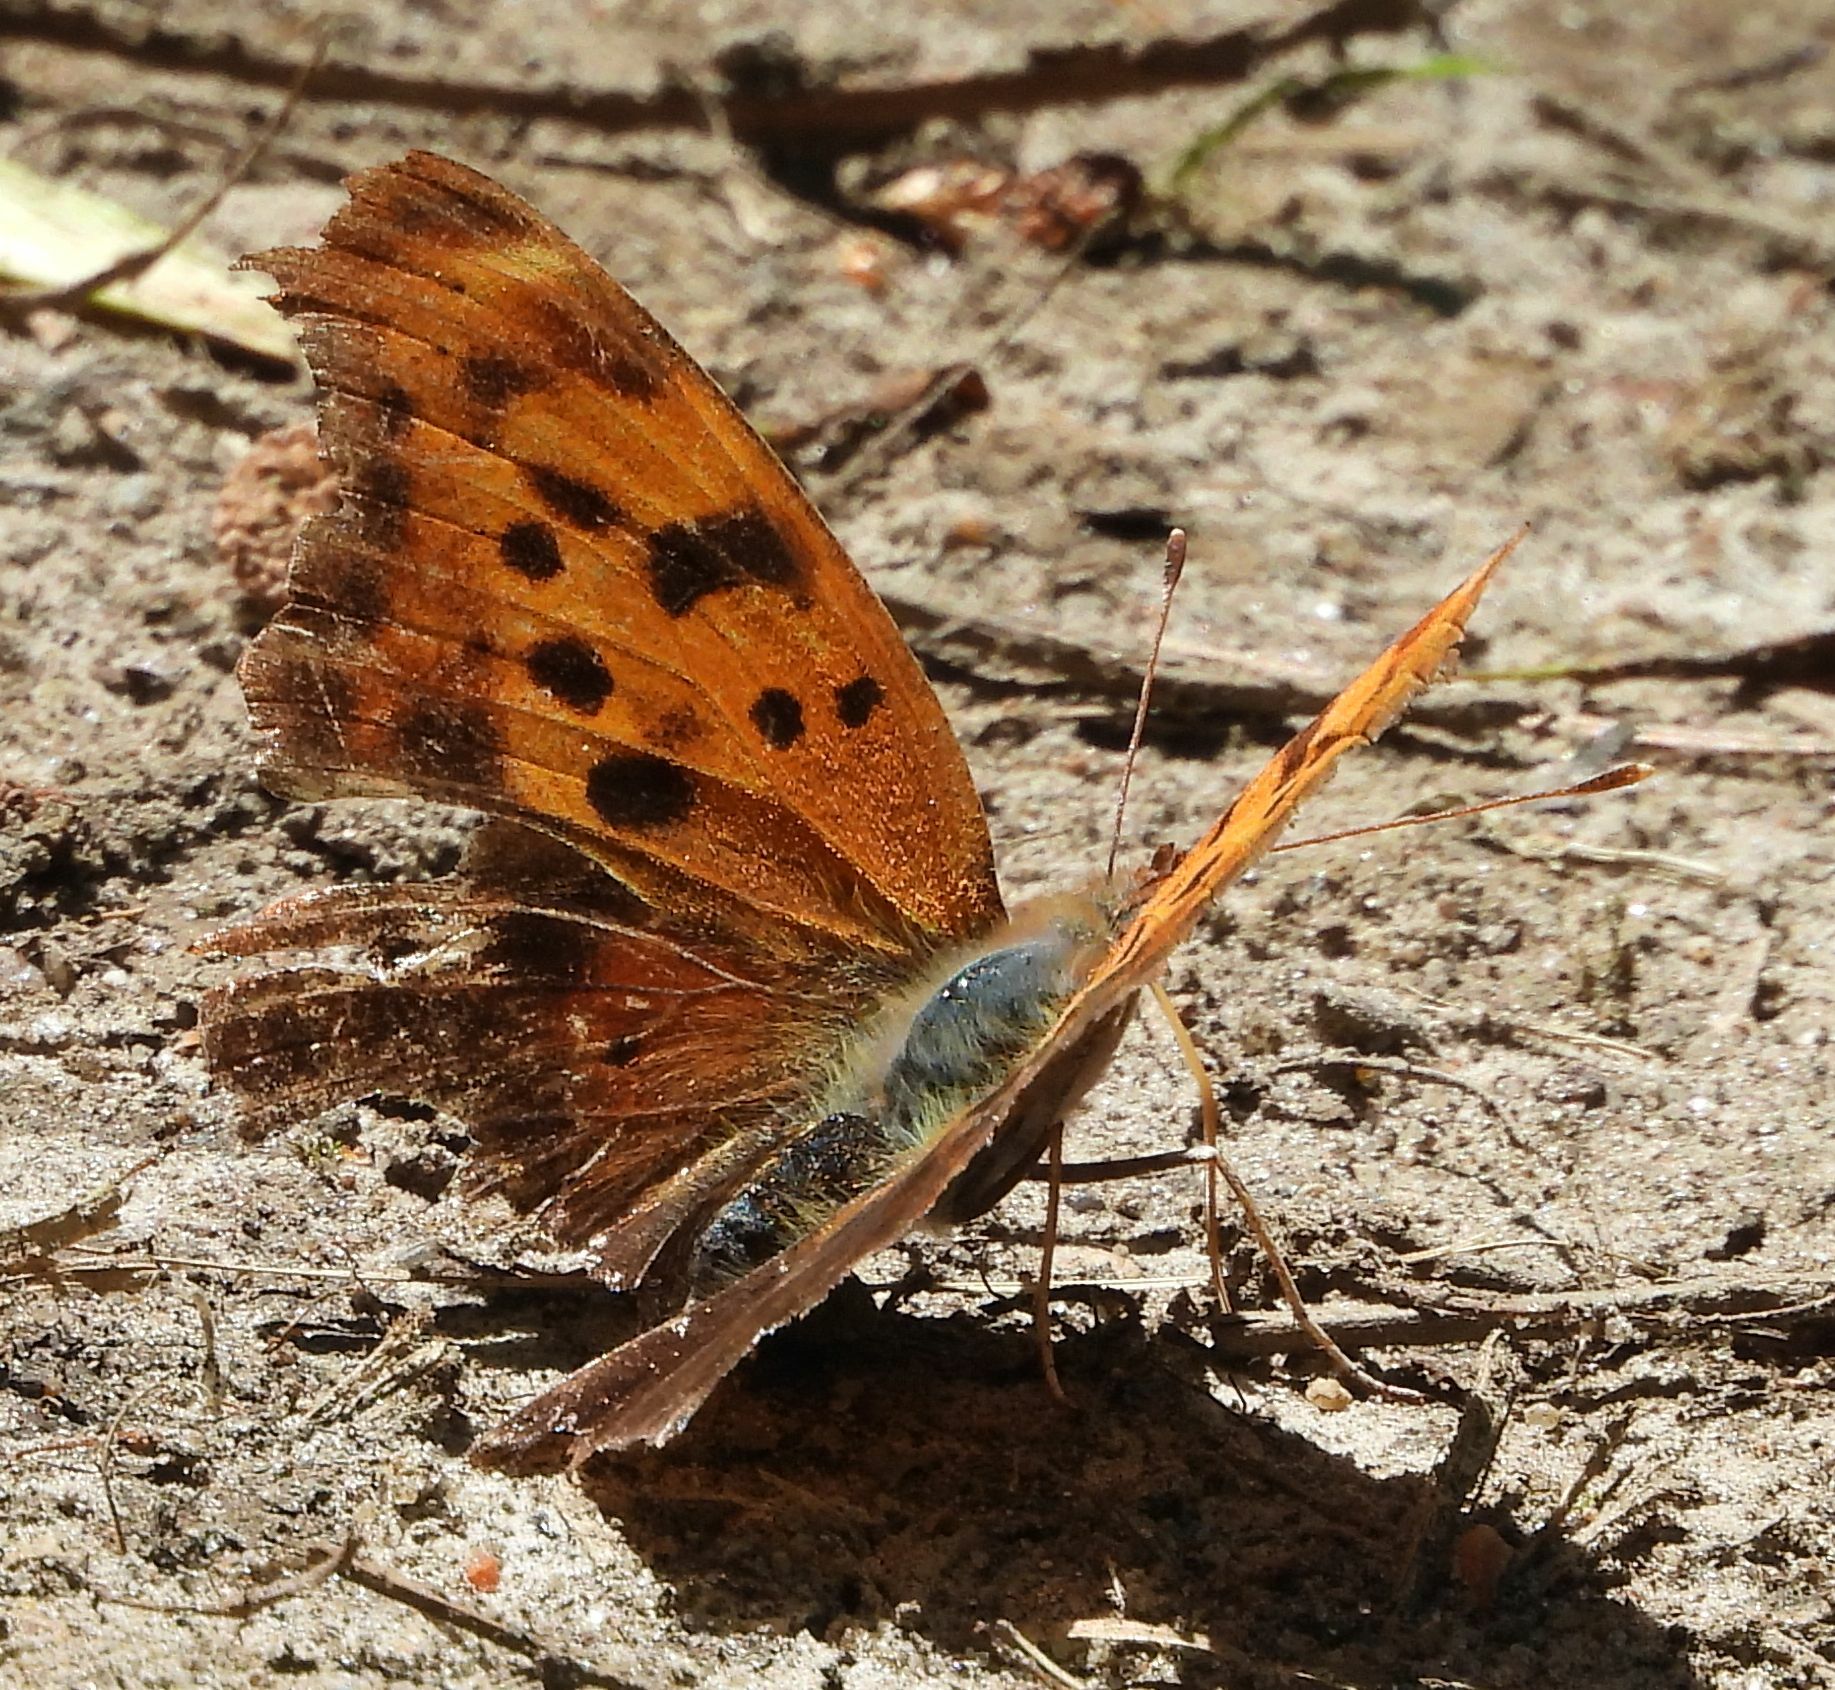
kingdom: Animalia
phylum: Arthropoda
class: Insecta
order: Lepidoptera
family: Nymphalidae
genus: Polygonia
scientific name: Polygonia interrogationis
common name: Question mark
